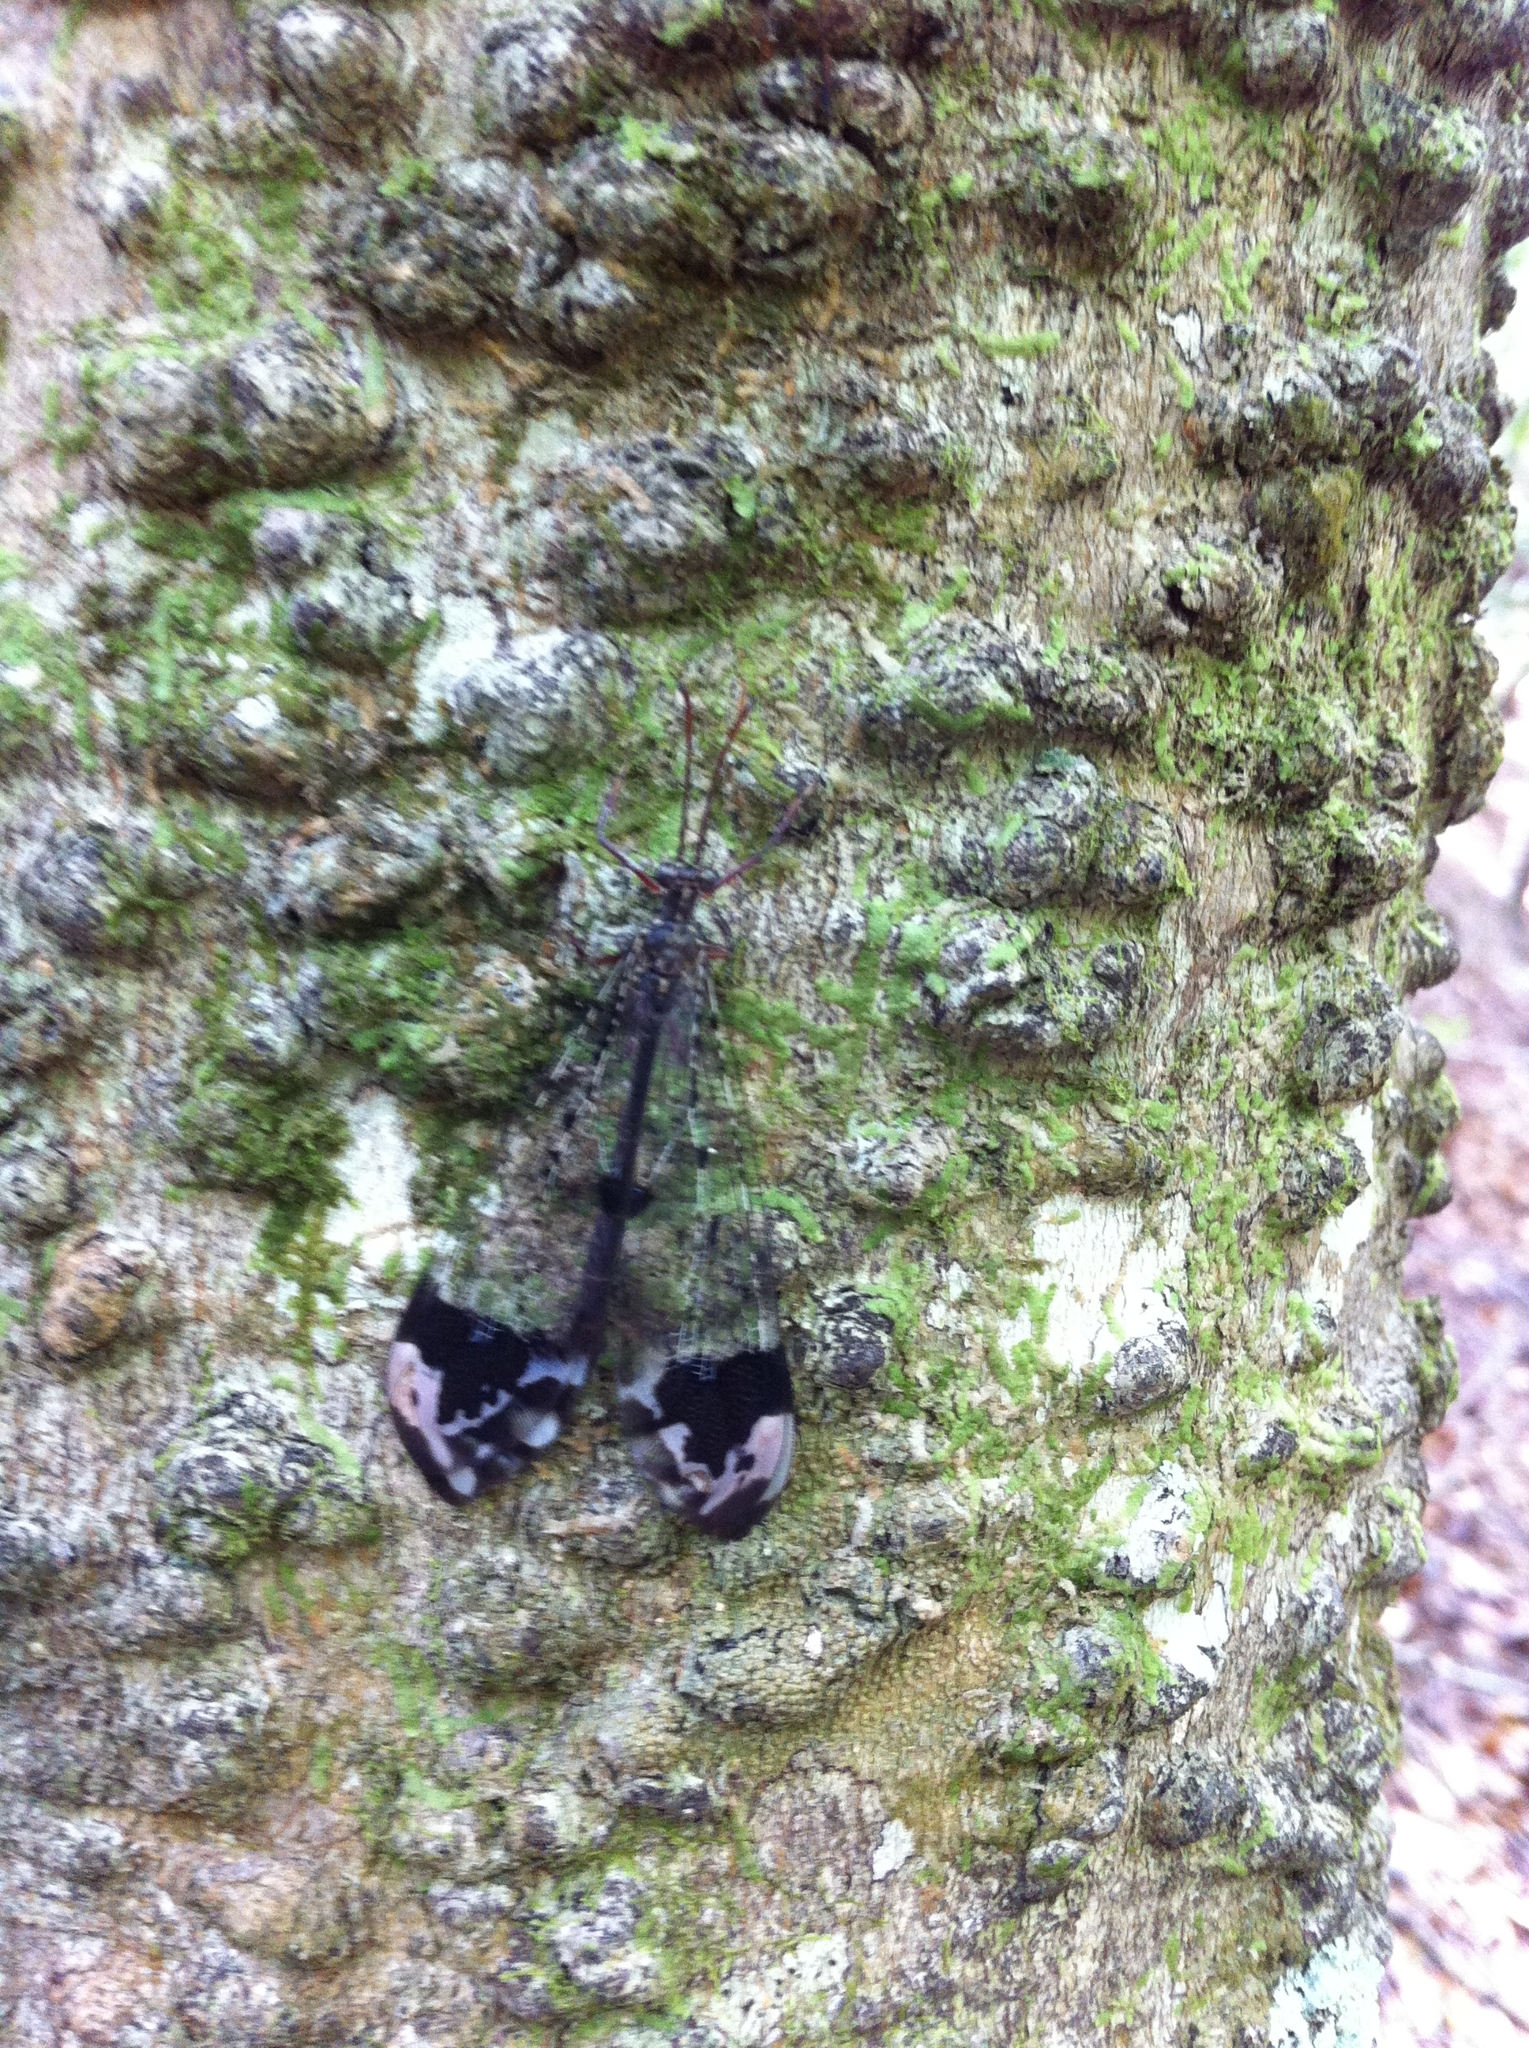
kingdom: Animalia
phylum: Arthropoda
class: Insecta
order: Neuroptera
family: Myrmeleontidae
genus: Glenurus
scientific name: Glenurus gratus
